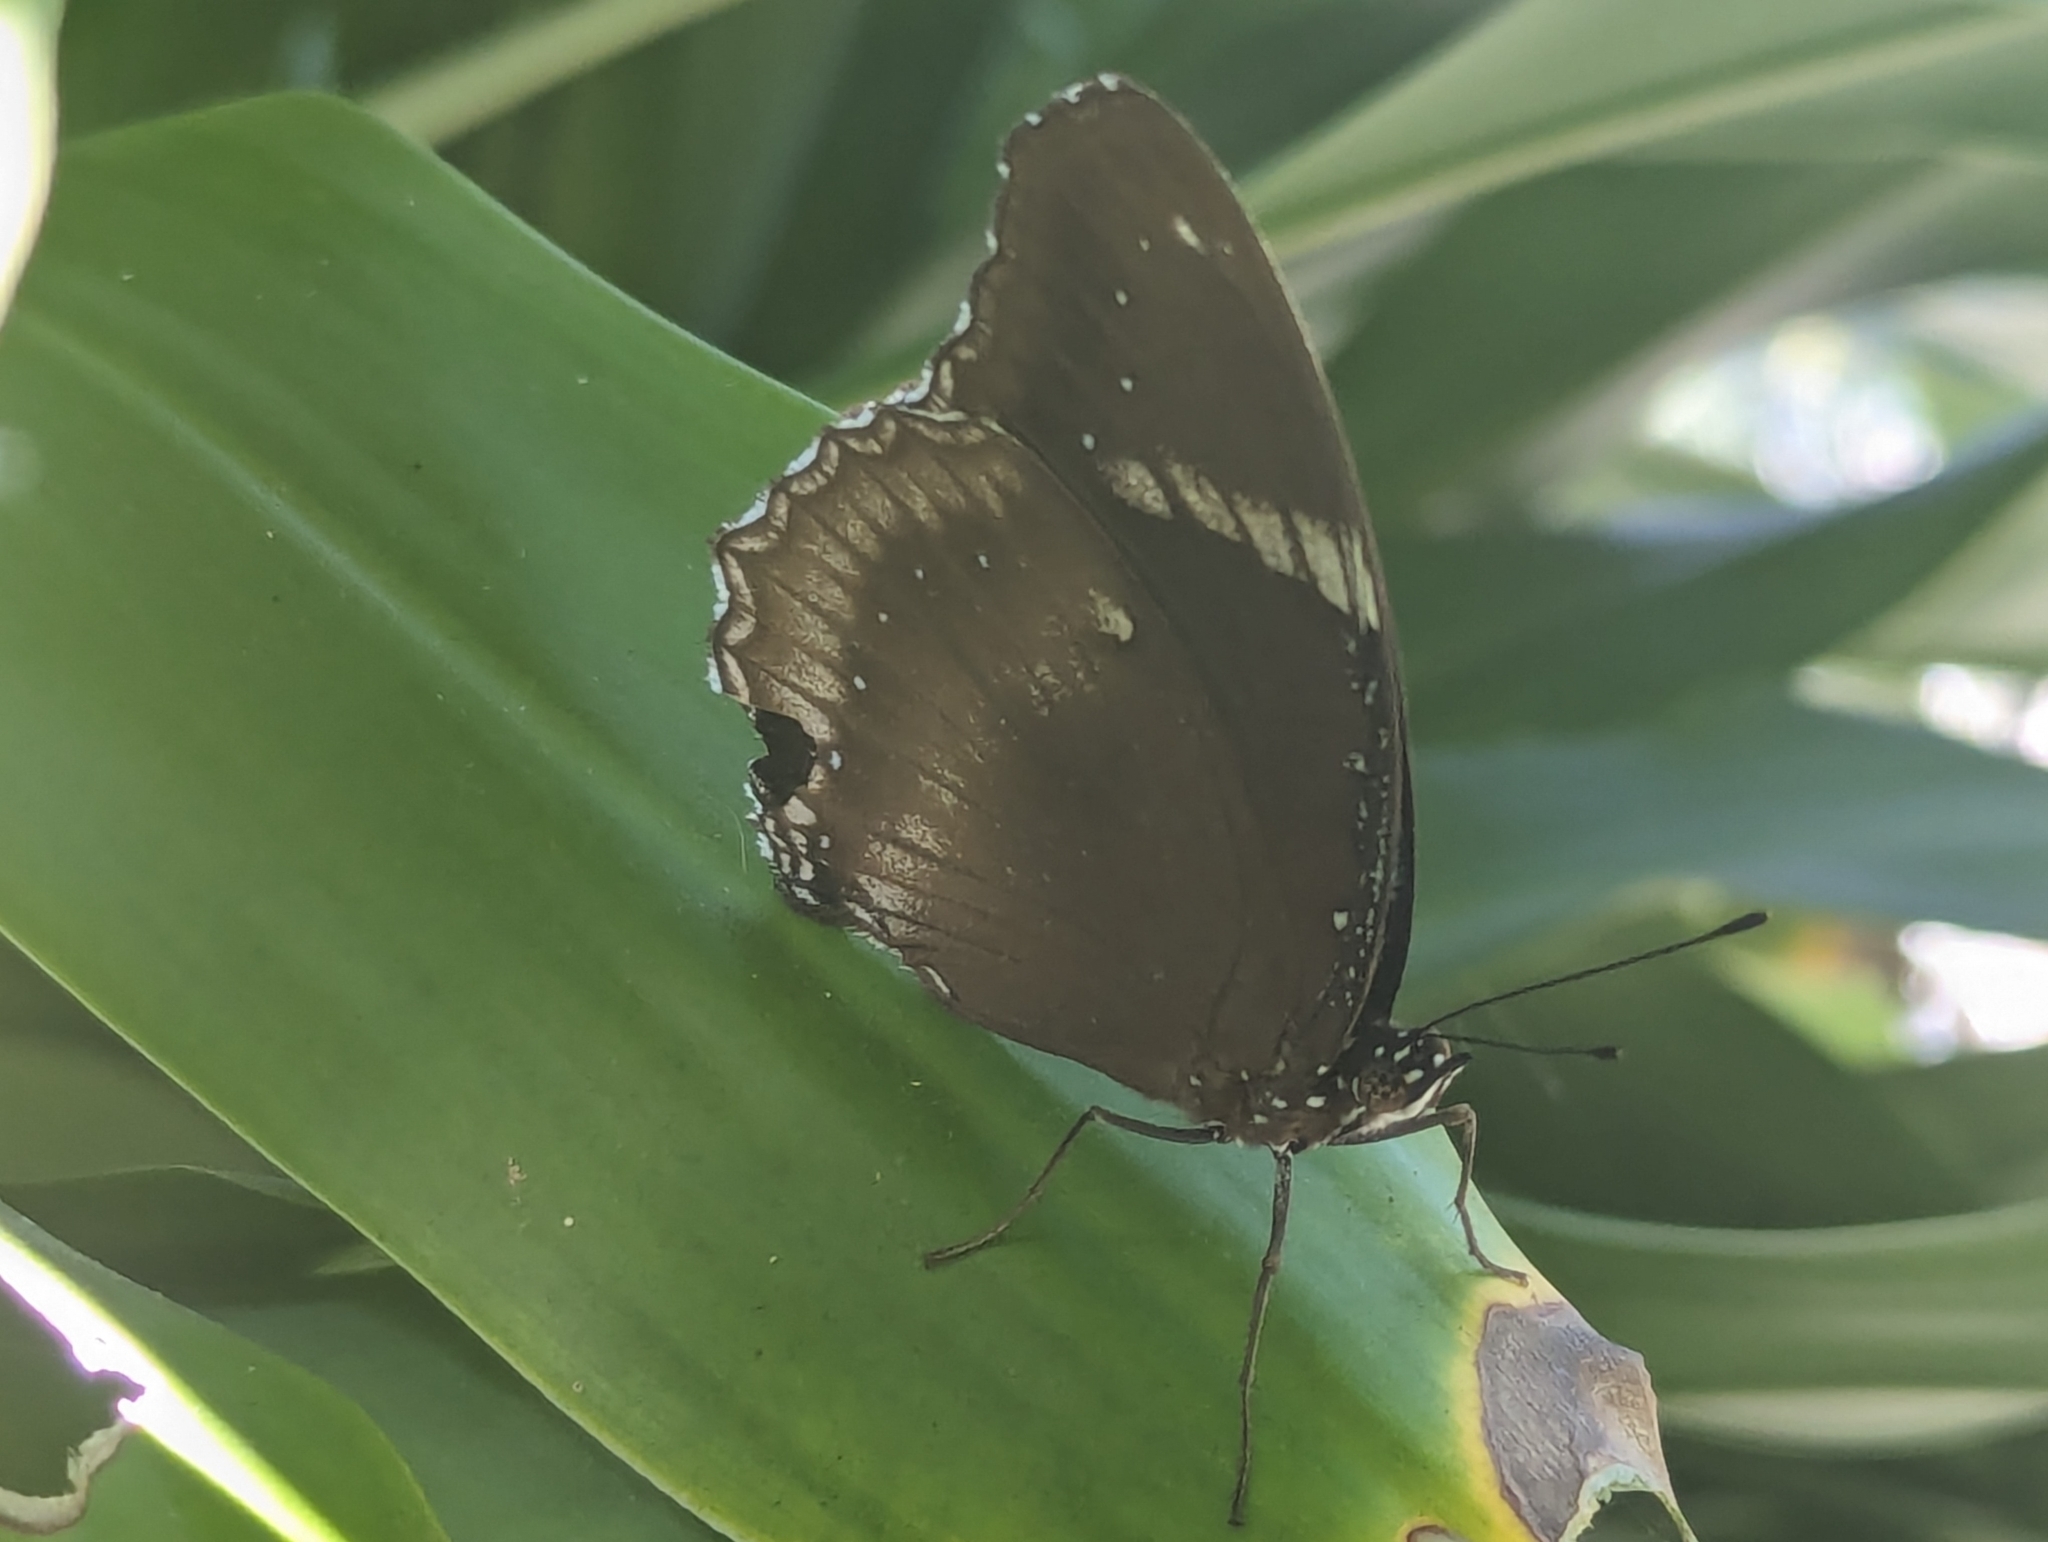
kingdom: Animalia
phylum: Arthropoda
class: Insecta
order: Lepidoptera
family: Nymphalidae
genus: Hypolimnas
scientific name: Hypolimnas bolina
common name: Great eggfly
